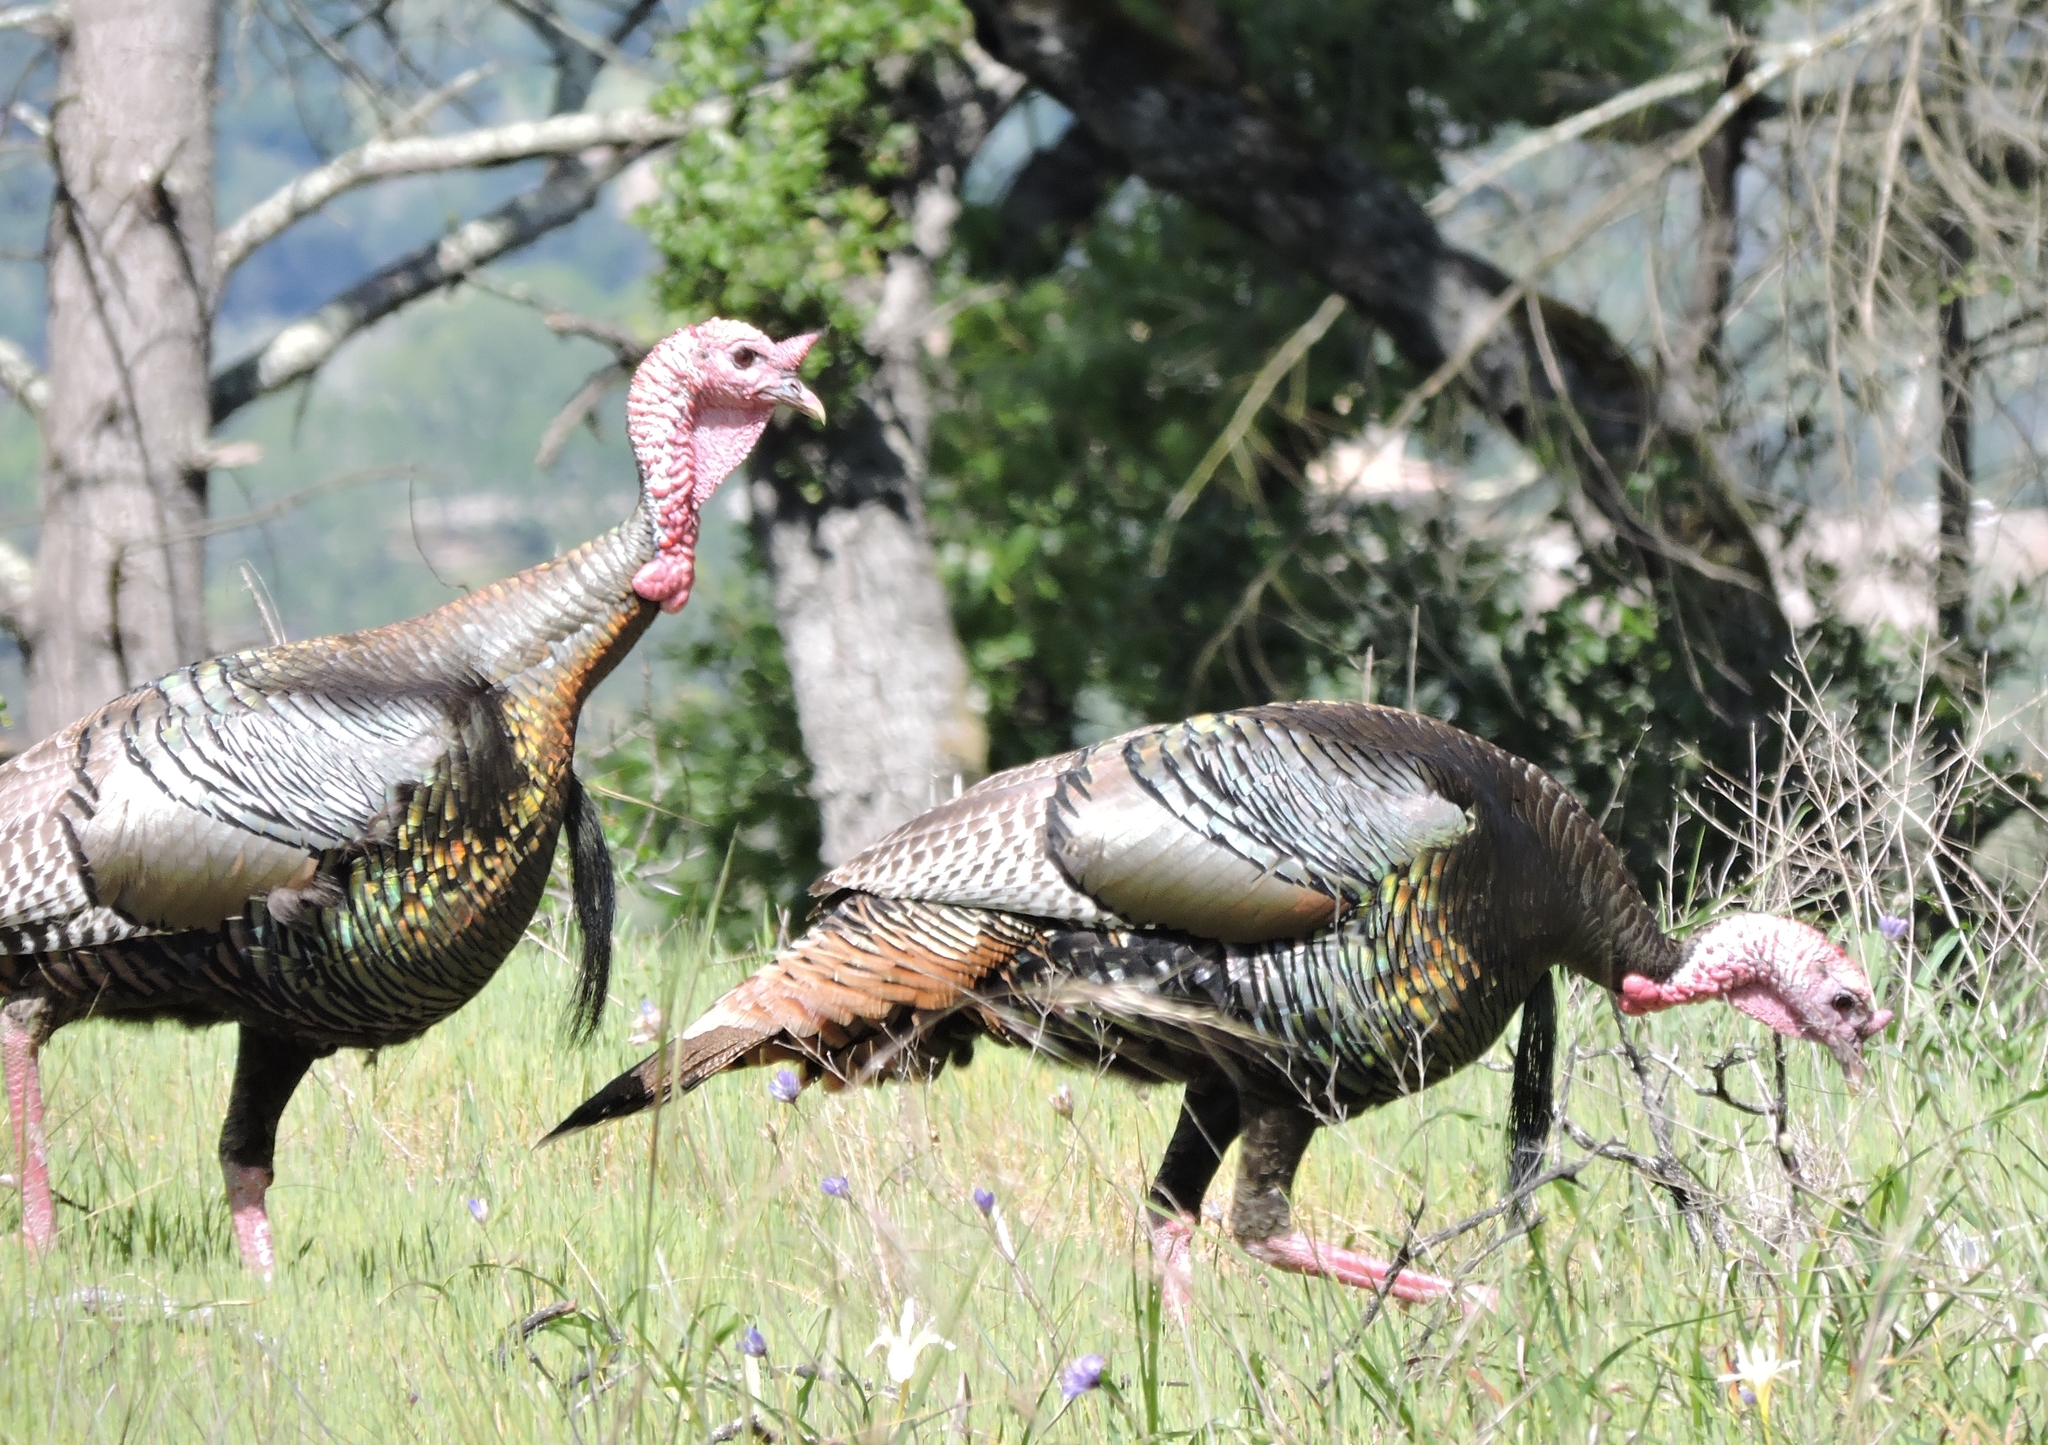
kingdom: Animalia
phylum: Chordata
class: Aves
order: Galliformes
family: Phasianidae
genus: Meleagris
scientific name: Meleagris gallopavo
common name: Wild turkey
